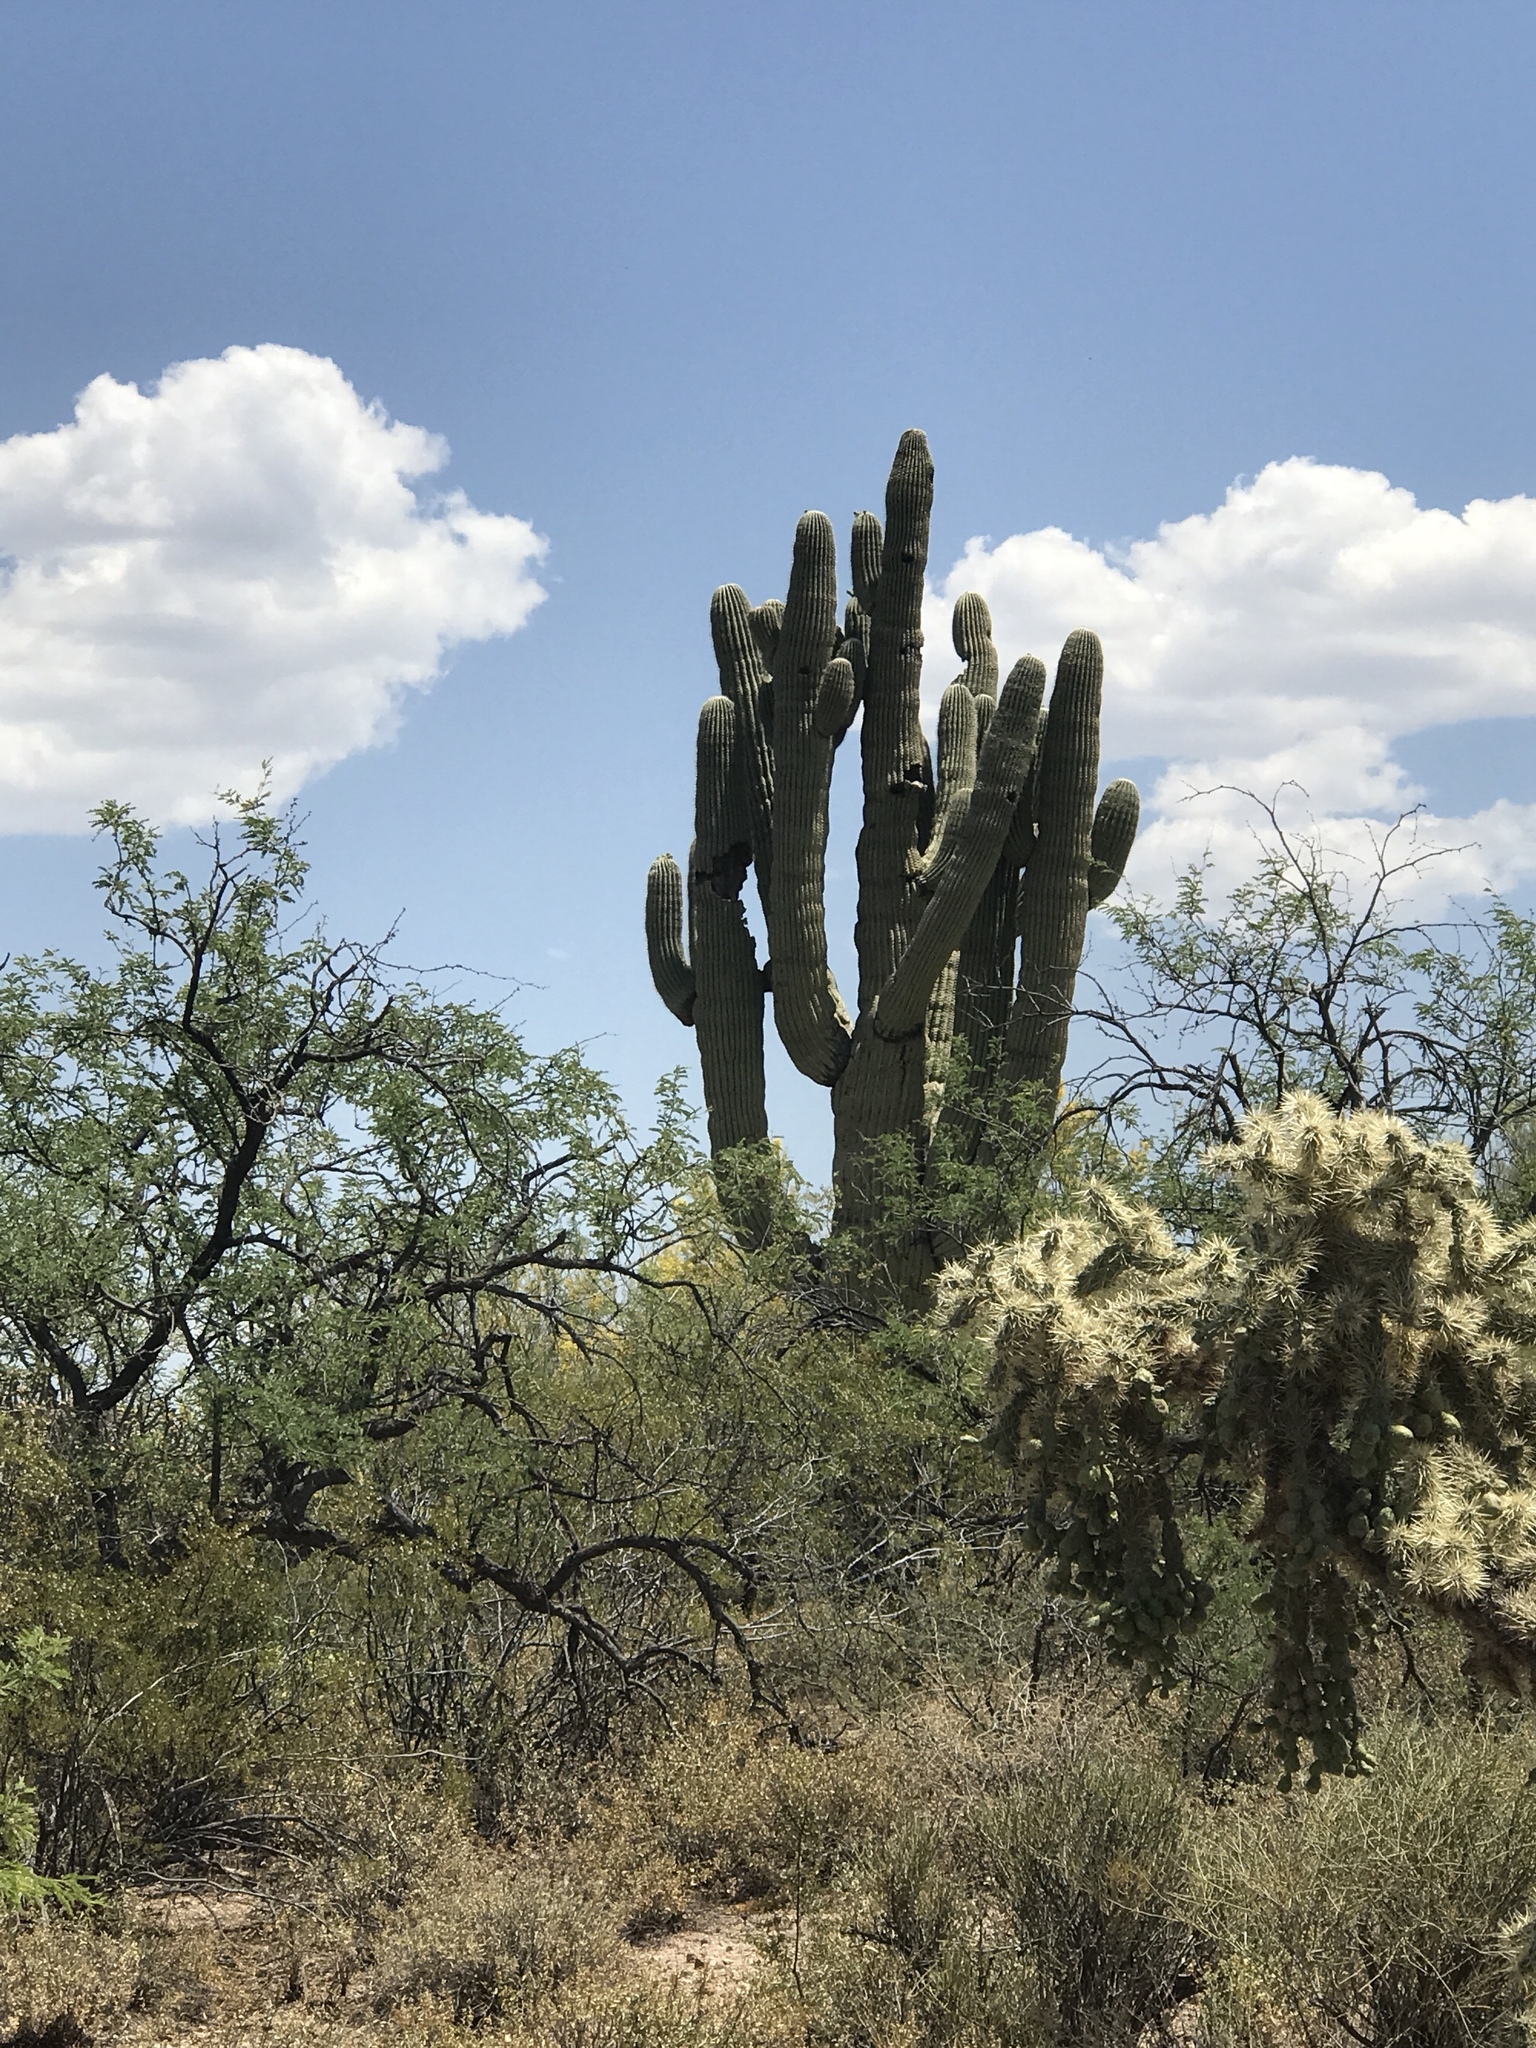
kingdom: Plantae
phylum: Tracheophyta
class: Magnoliopsida
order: Caryophyllales
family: Cactaceae
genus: Carnegiea
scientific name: Carnegiea gigantea
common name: Saguaro
